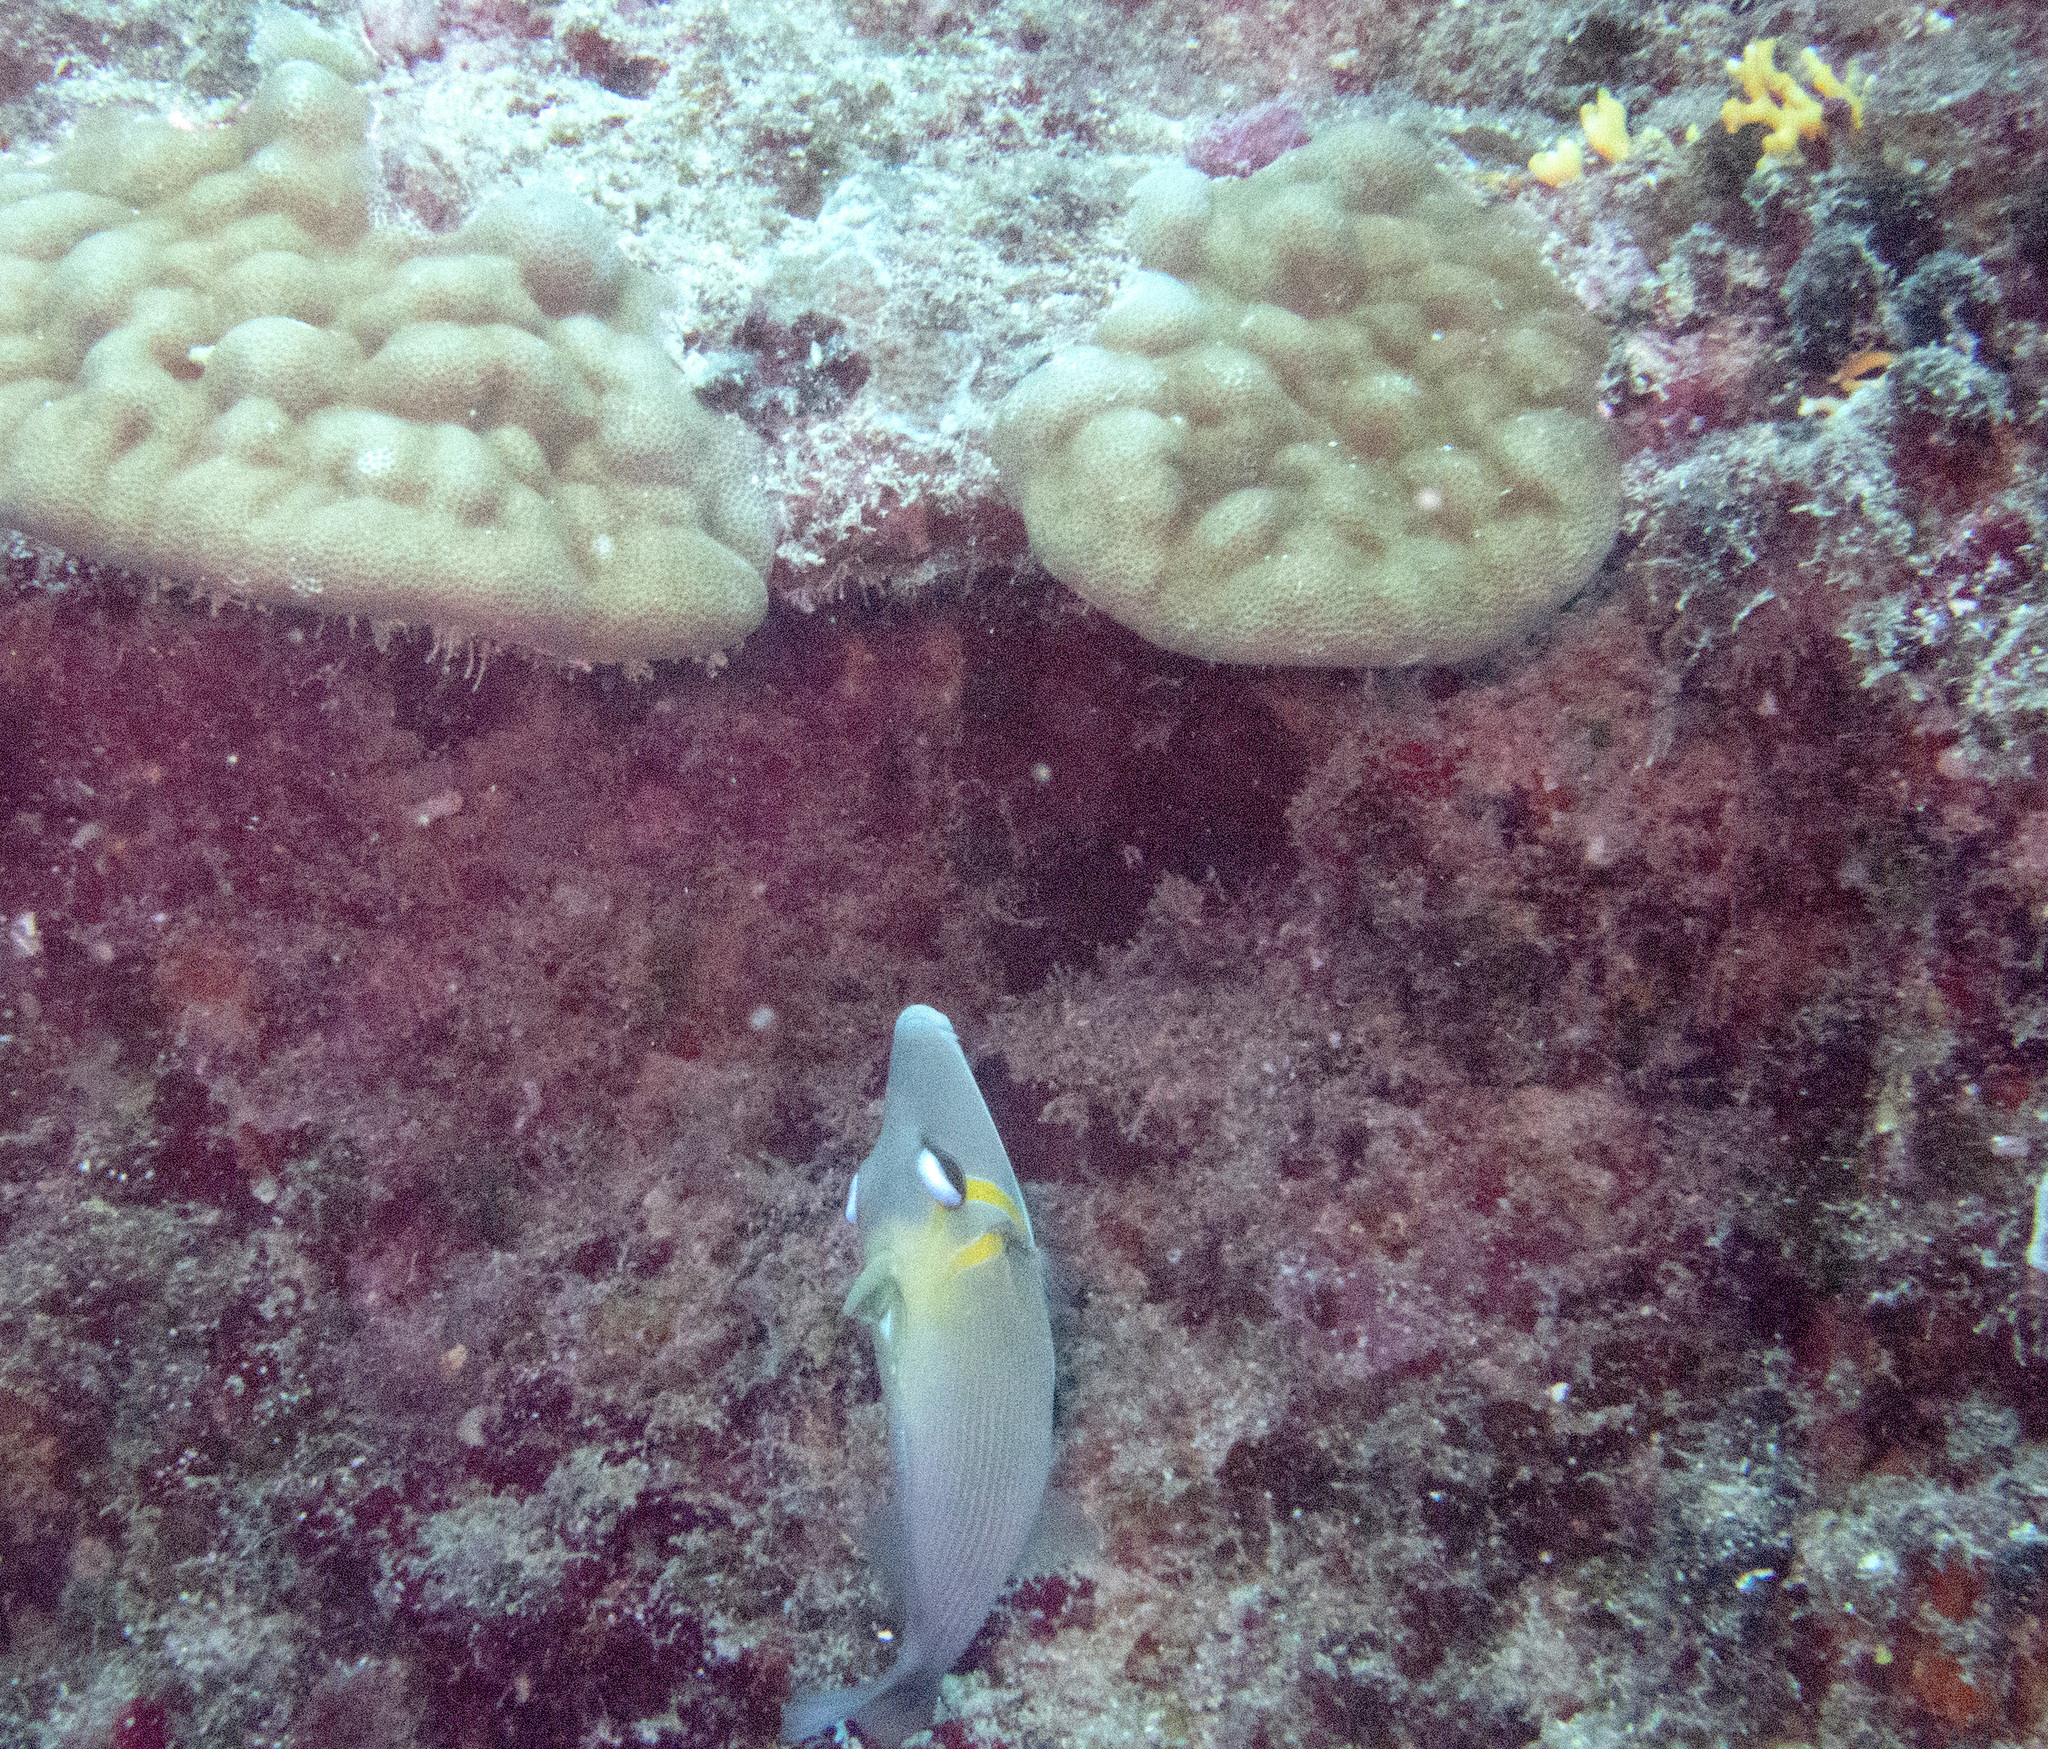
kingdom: Animalia
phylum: Chordata
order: Tetraodontiformes
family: Balistidae
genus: Sufflamen
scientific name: Sufflamen bursa
